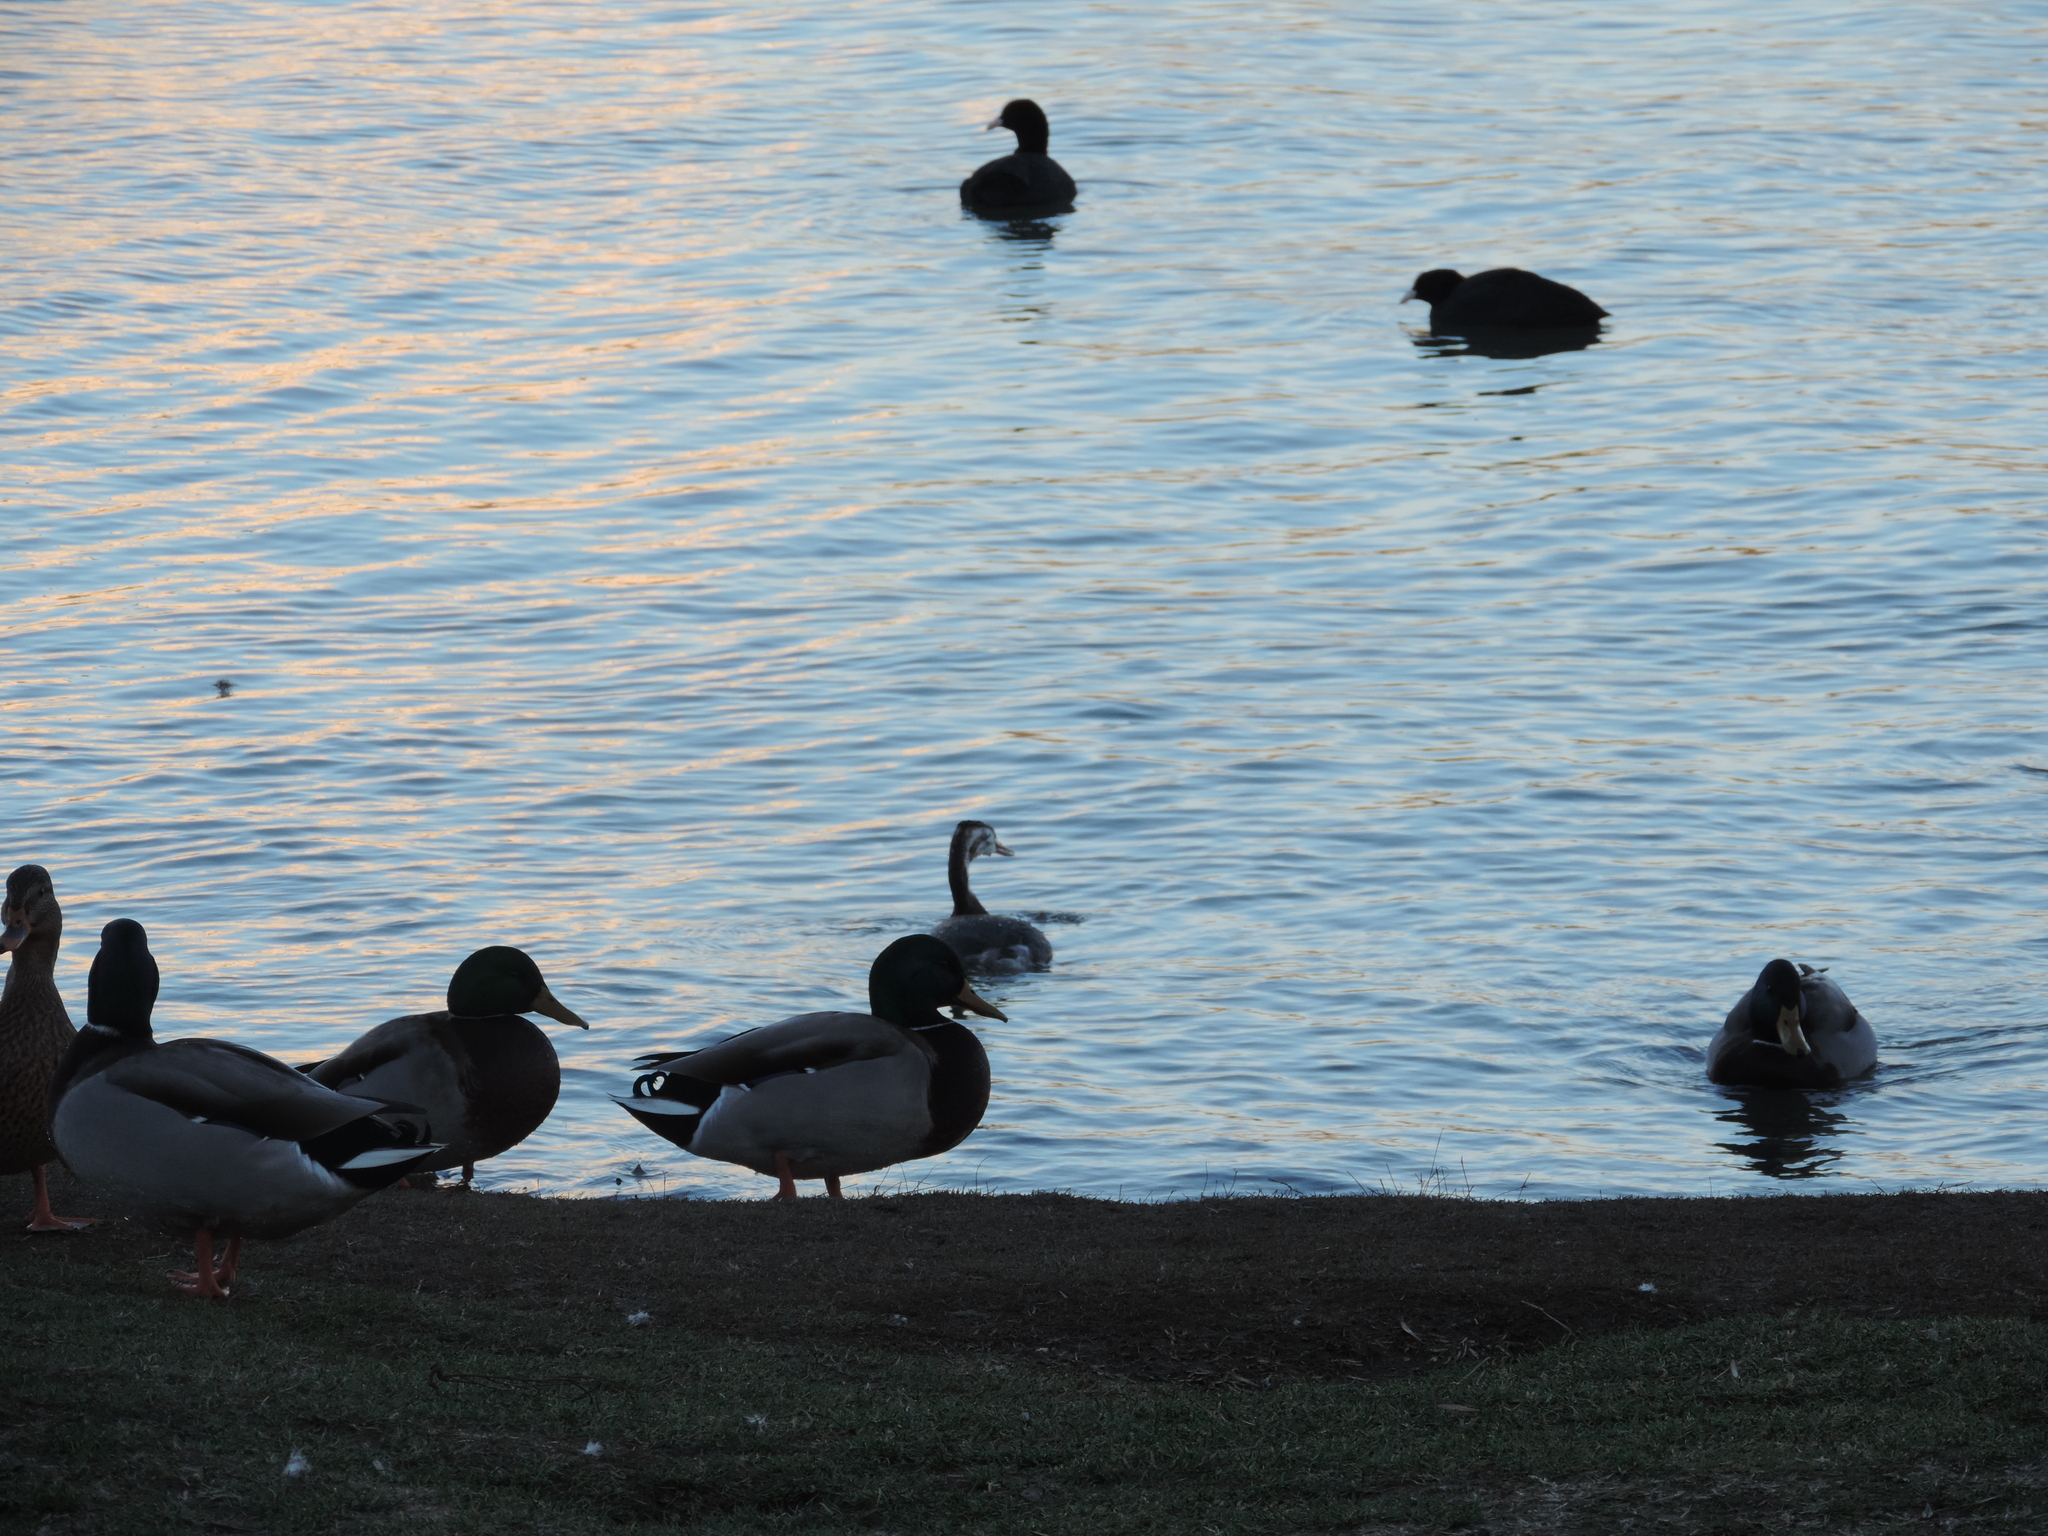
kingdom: Animalia
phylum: Chordata
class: Aves
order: Podicipediformes
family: Podicipedidae
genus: Podiceps
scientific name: Podiceps cristatus
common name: Great crested grebe
